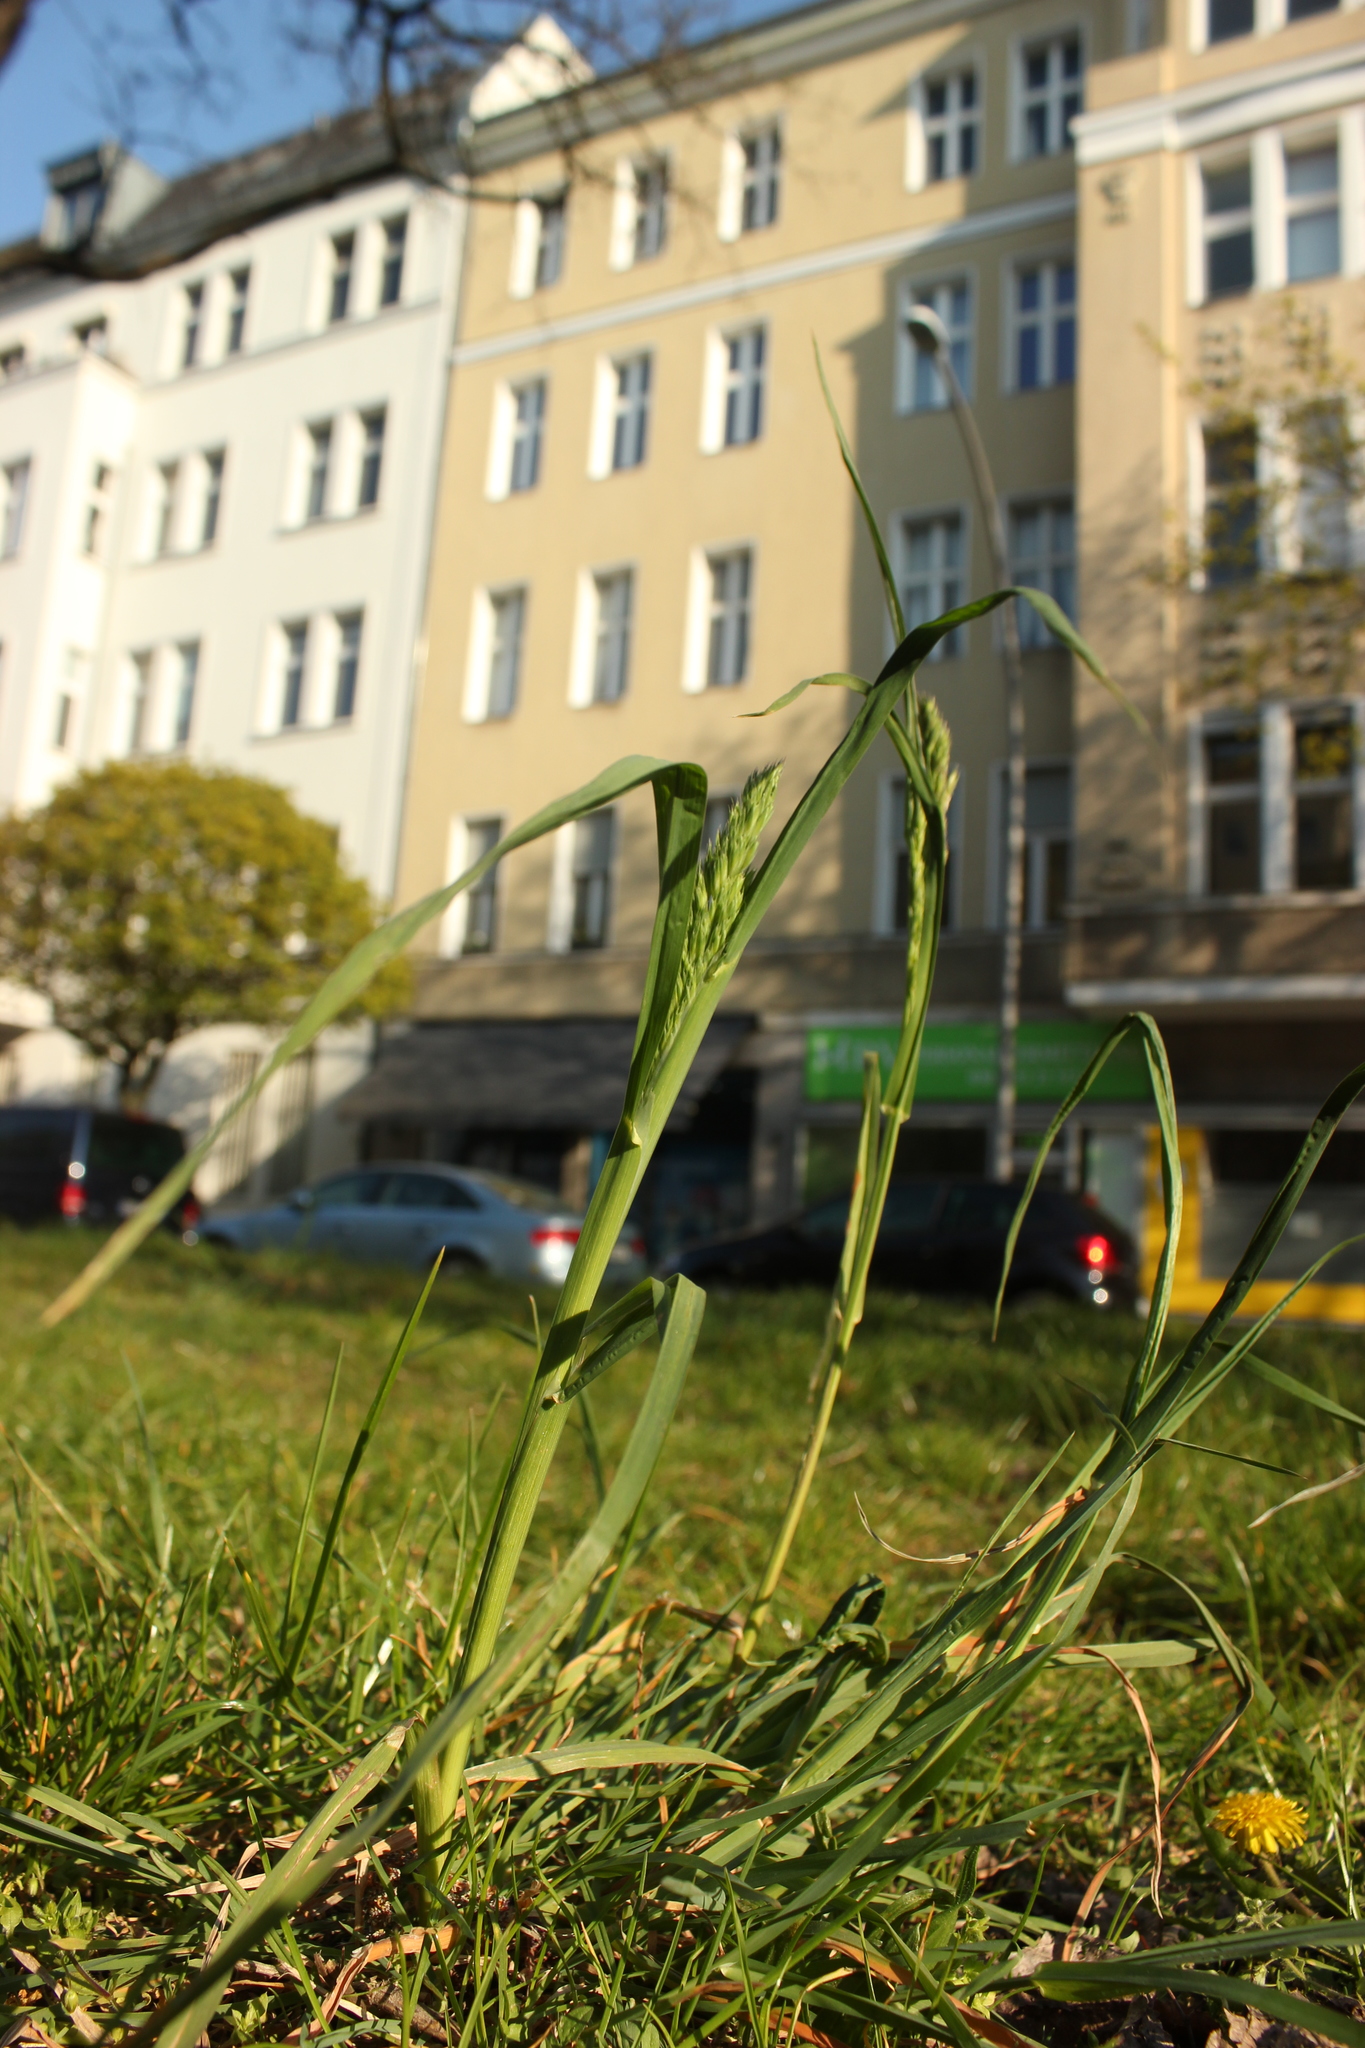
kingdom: Plantae
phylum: Tracheophyta
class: Liliopsida
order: Poales
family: Poaceae
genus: Dactylis
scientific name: Dactylis glomerata
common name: Orchardgrass
